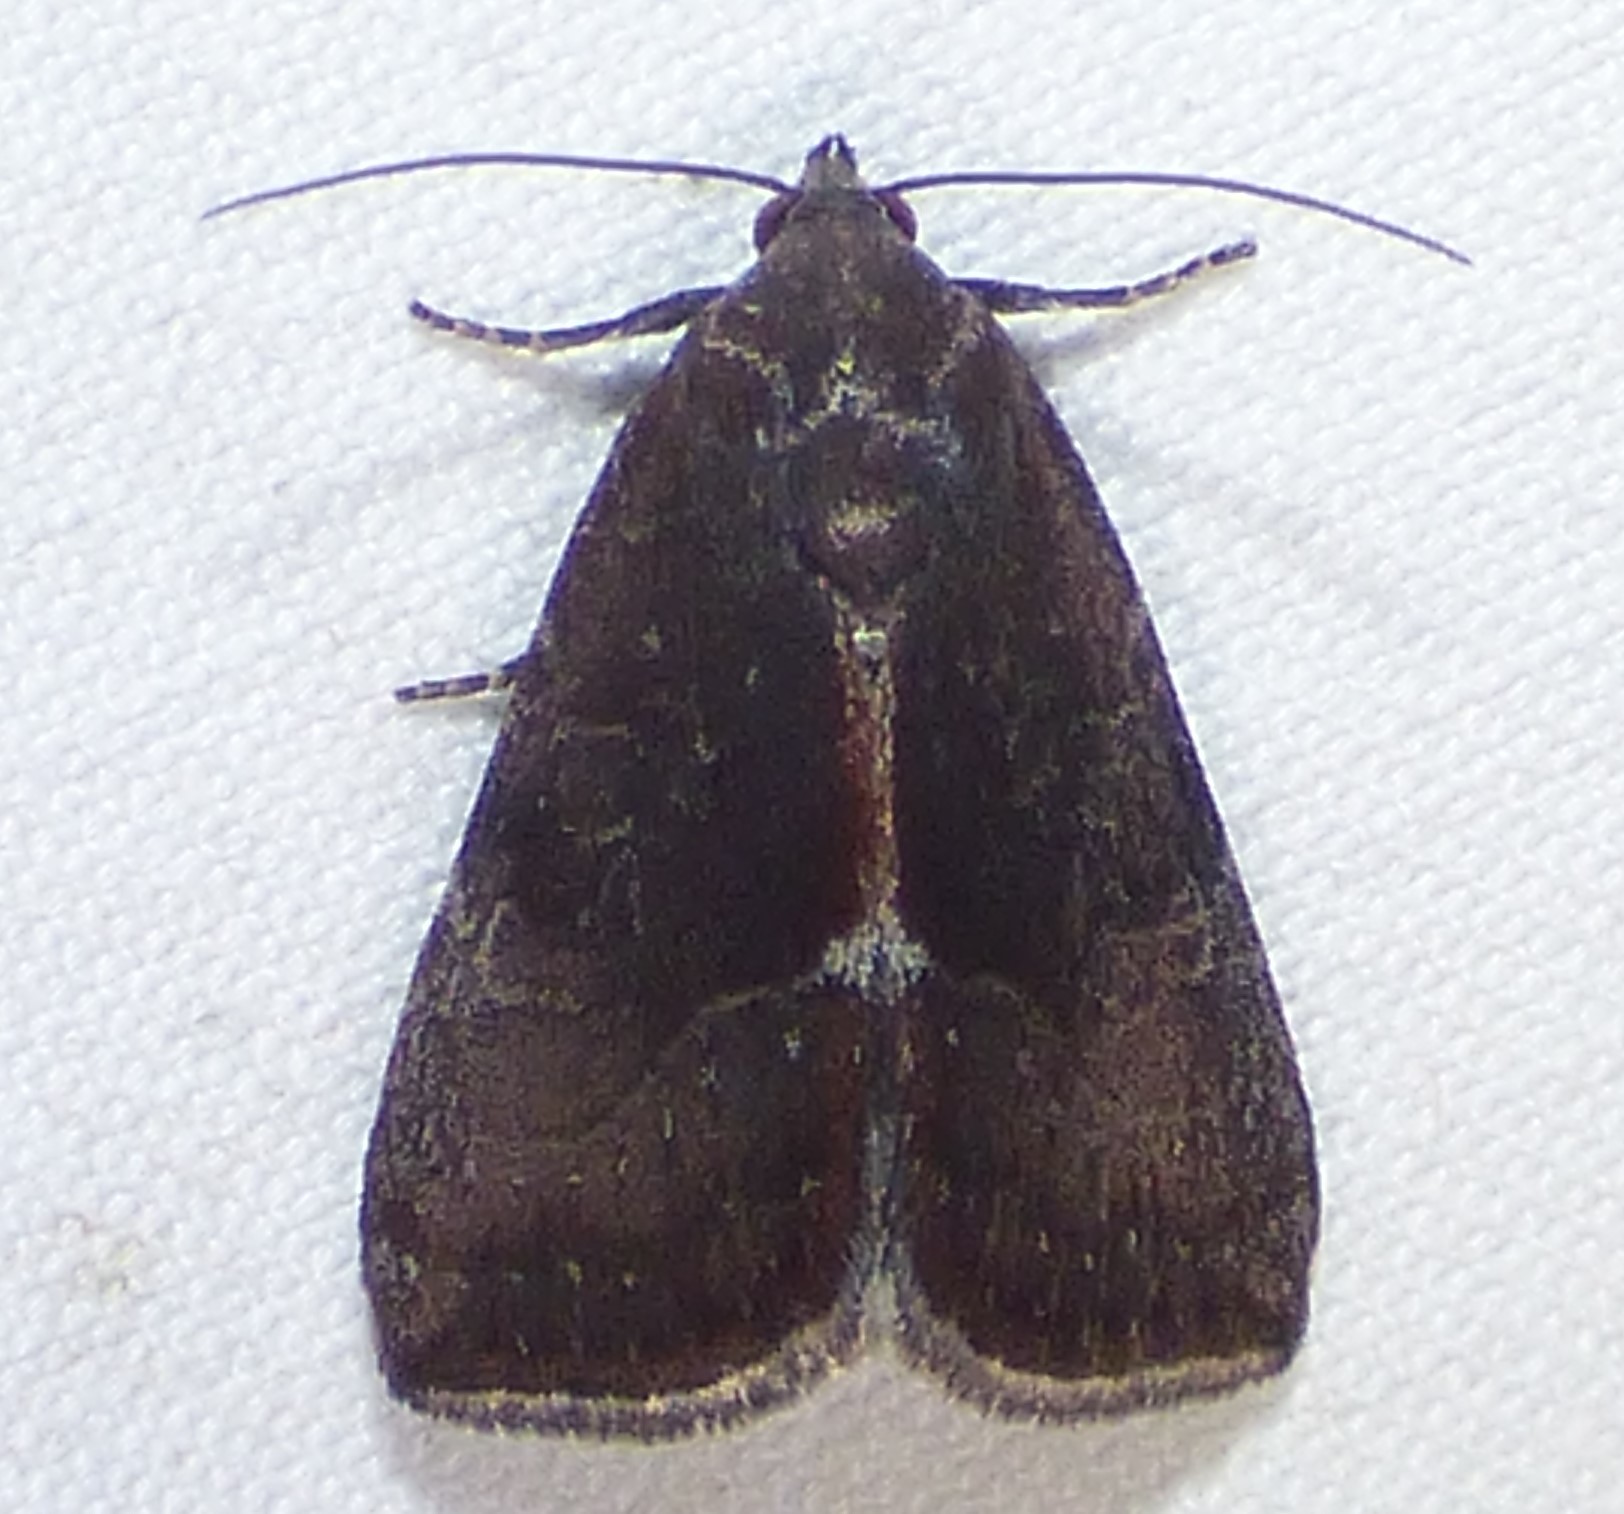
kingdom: Animalia
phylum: Arthropoda
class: Insecta
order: Lepidoptera
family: Noctuidae
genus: Galgula
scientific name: Galgula partita
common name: Wedgeling
